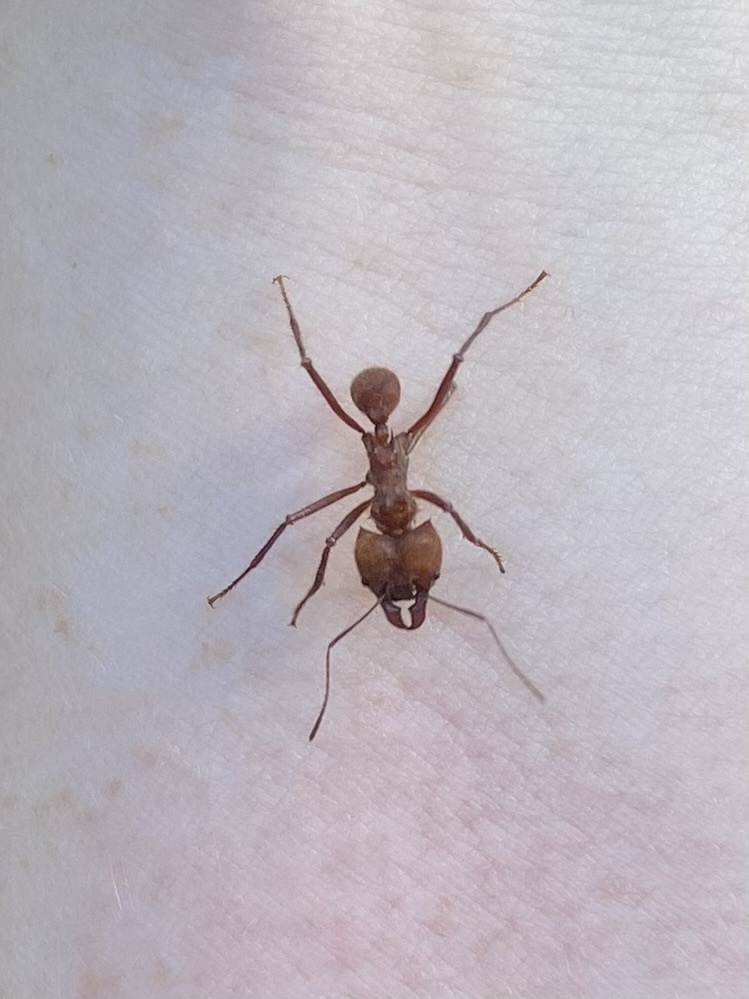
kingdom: Animalia
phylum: Arthropoda
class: Insecta
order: Hymenoptera
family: Formicidae
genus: Atta
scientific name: Atta cephalotes
